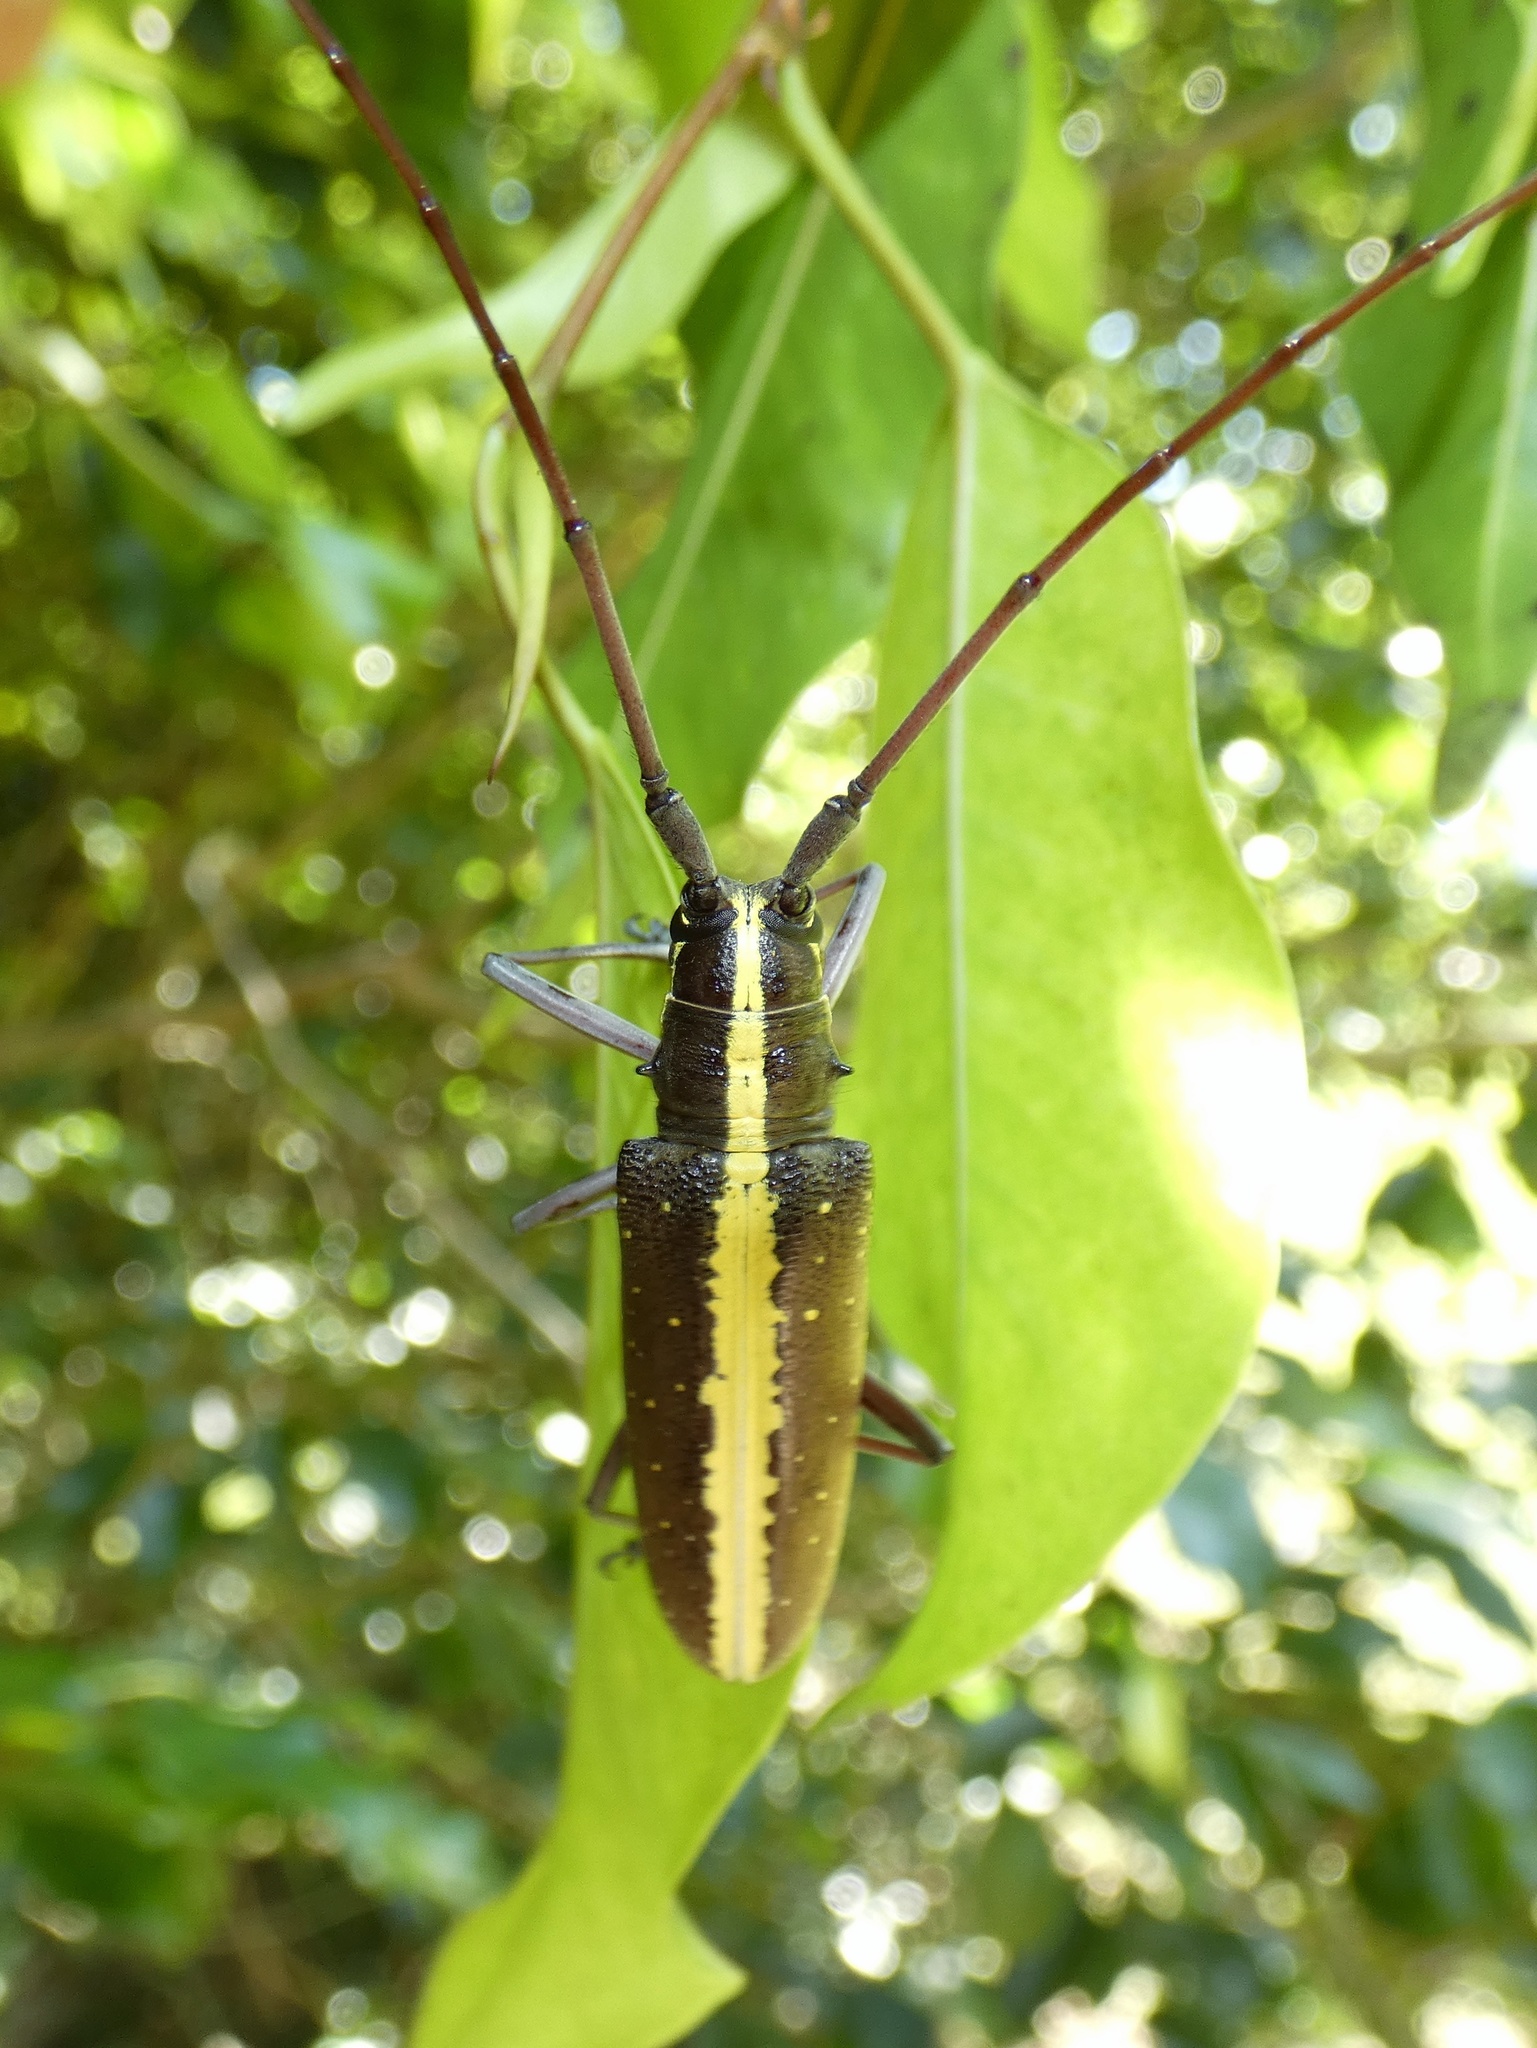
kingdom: Animalia
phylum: Arthropoda
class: Insecta
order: Coleoptera
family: Cerambycidae
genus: Taeniotes
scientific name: Taeniotes scalatus
